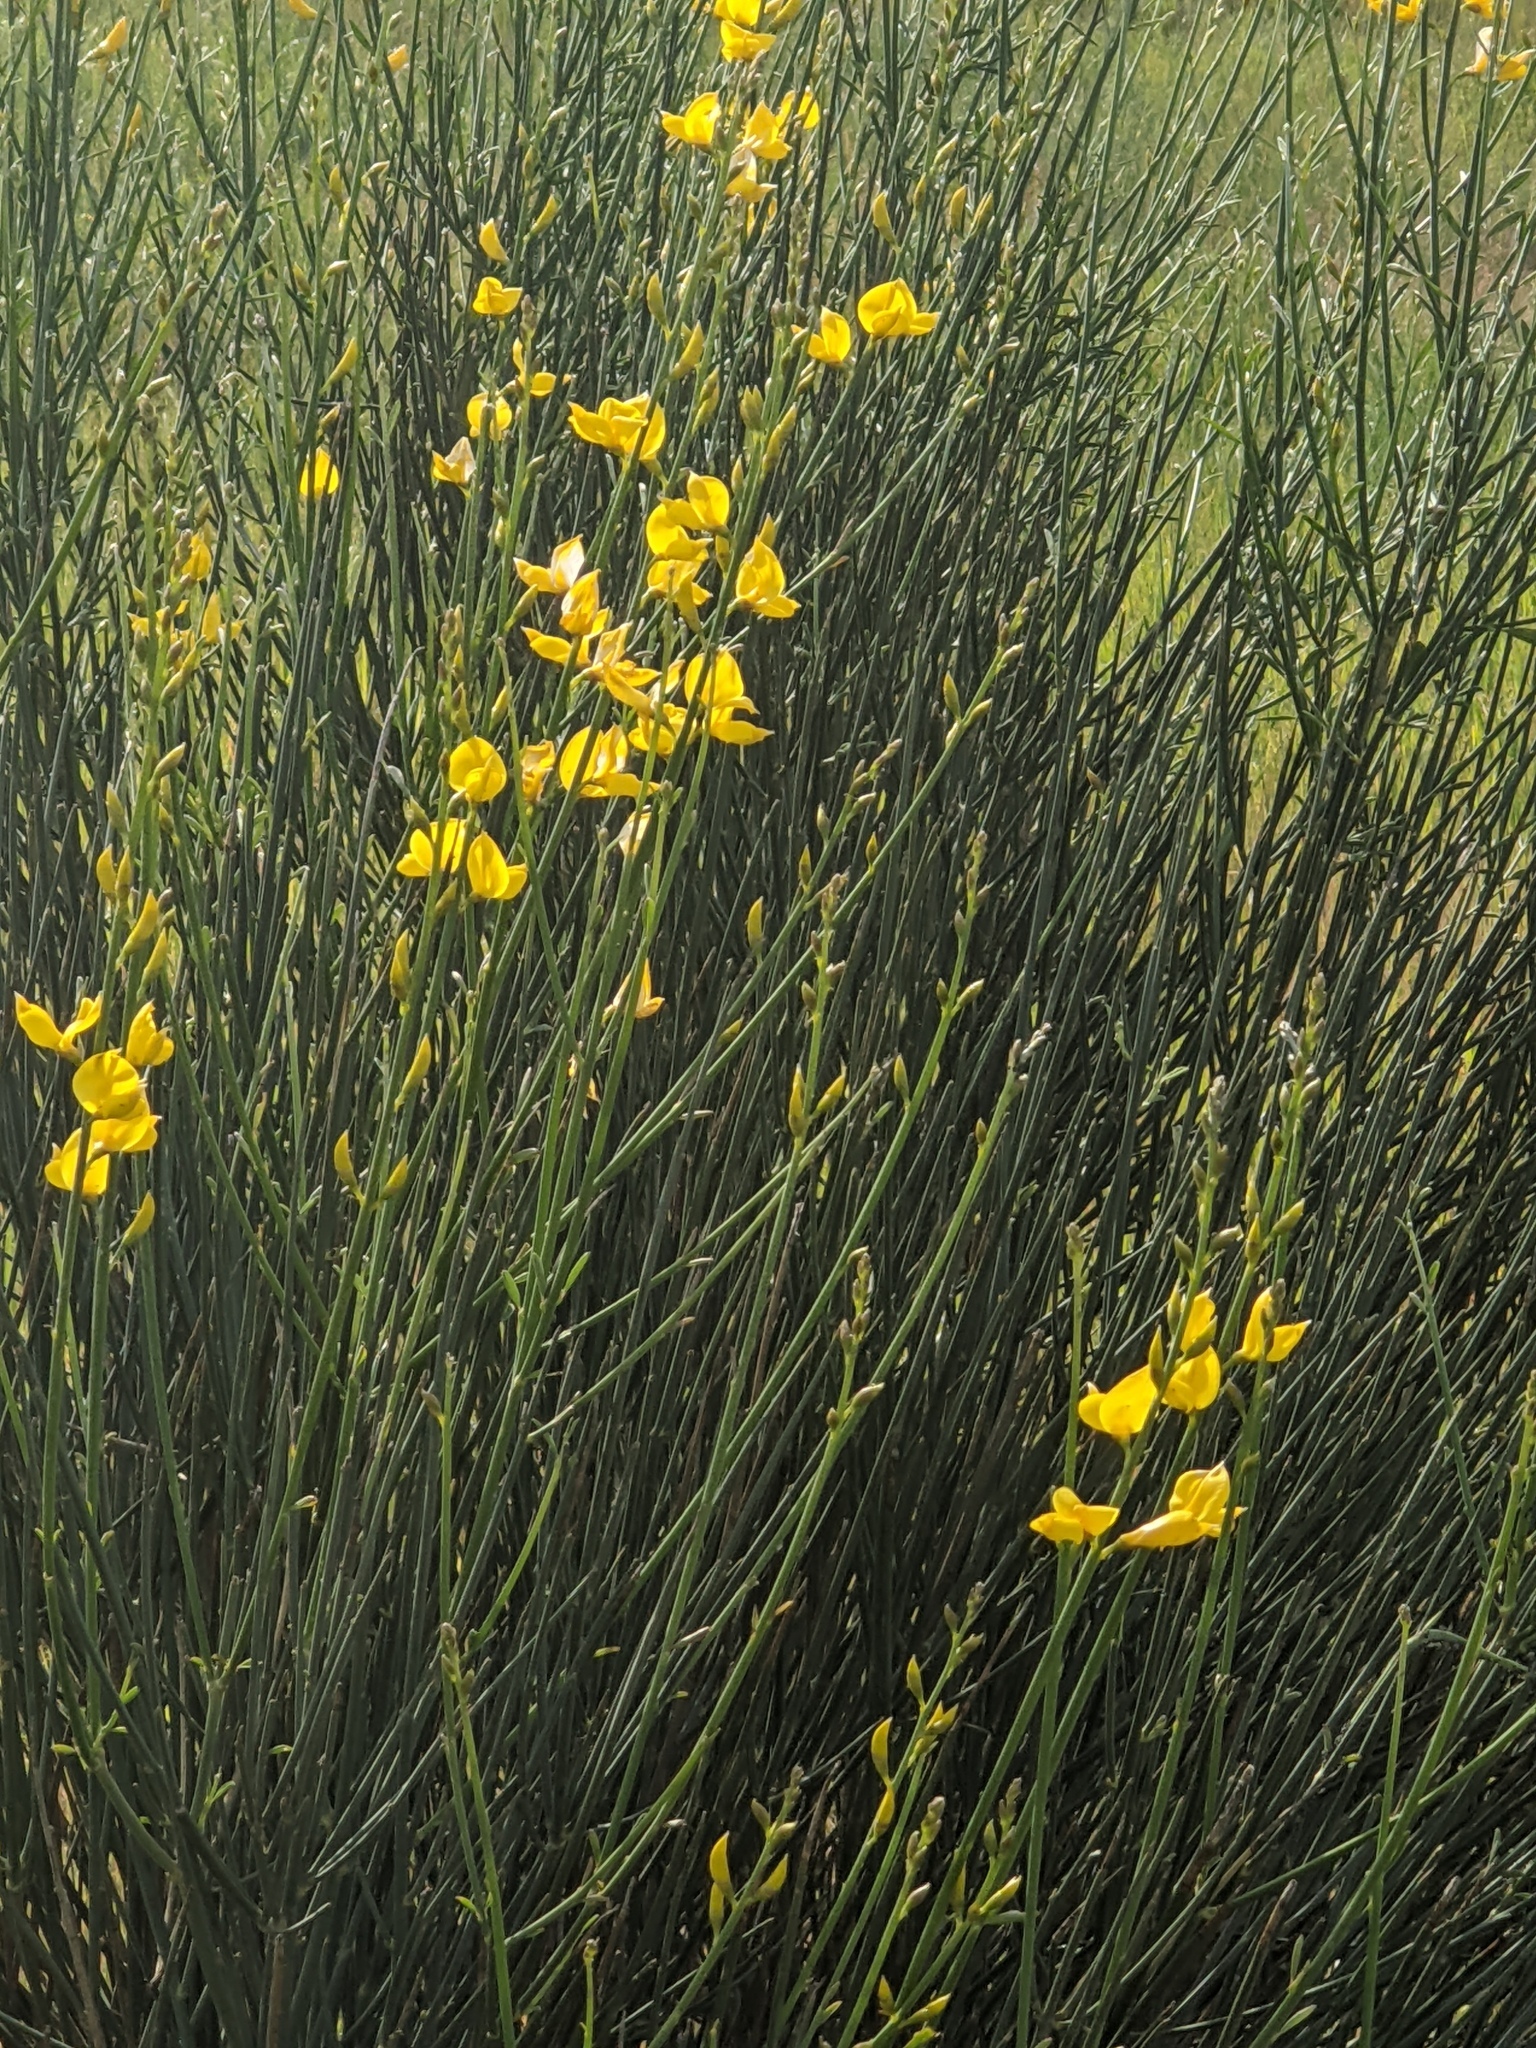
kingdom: Plantae
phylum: Tracheophyta
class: Magnoliopsida
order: Fabales
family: Fabaceae
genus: Spartium
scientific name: Spartium junceum
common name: Spanish broom
